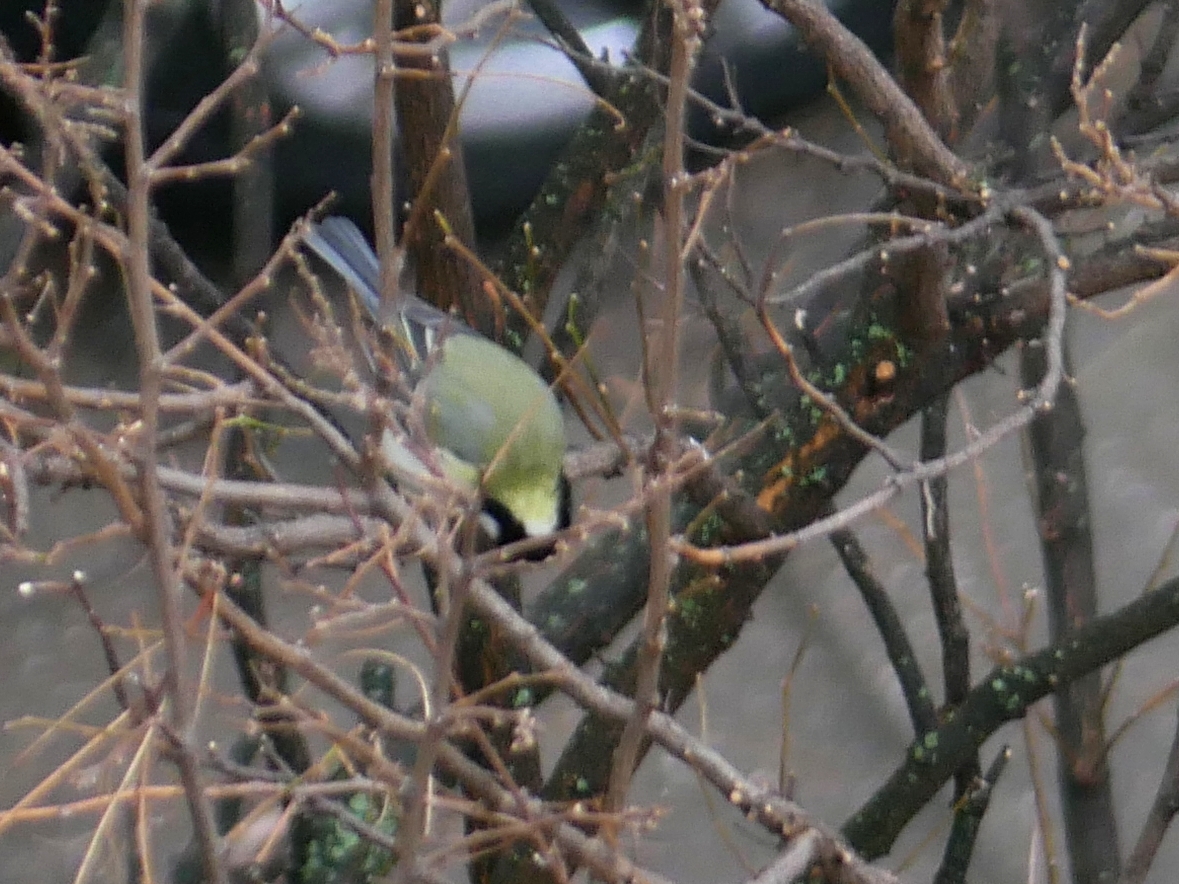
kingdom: Animalia
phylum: Chordata
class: Aves
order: Passeriformes
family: Paridae
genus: Parus
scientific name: Parus major
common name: Great tit
